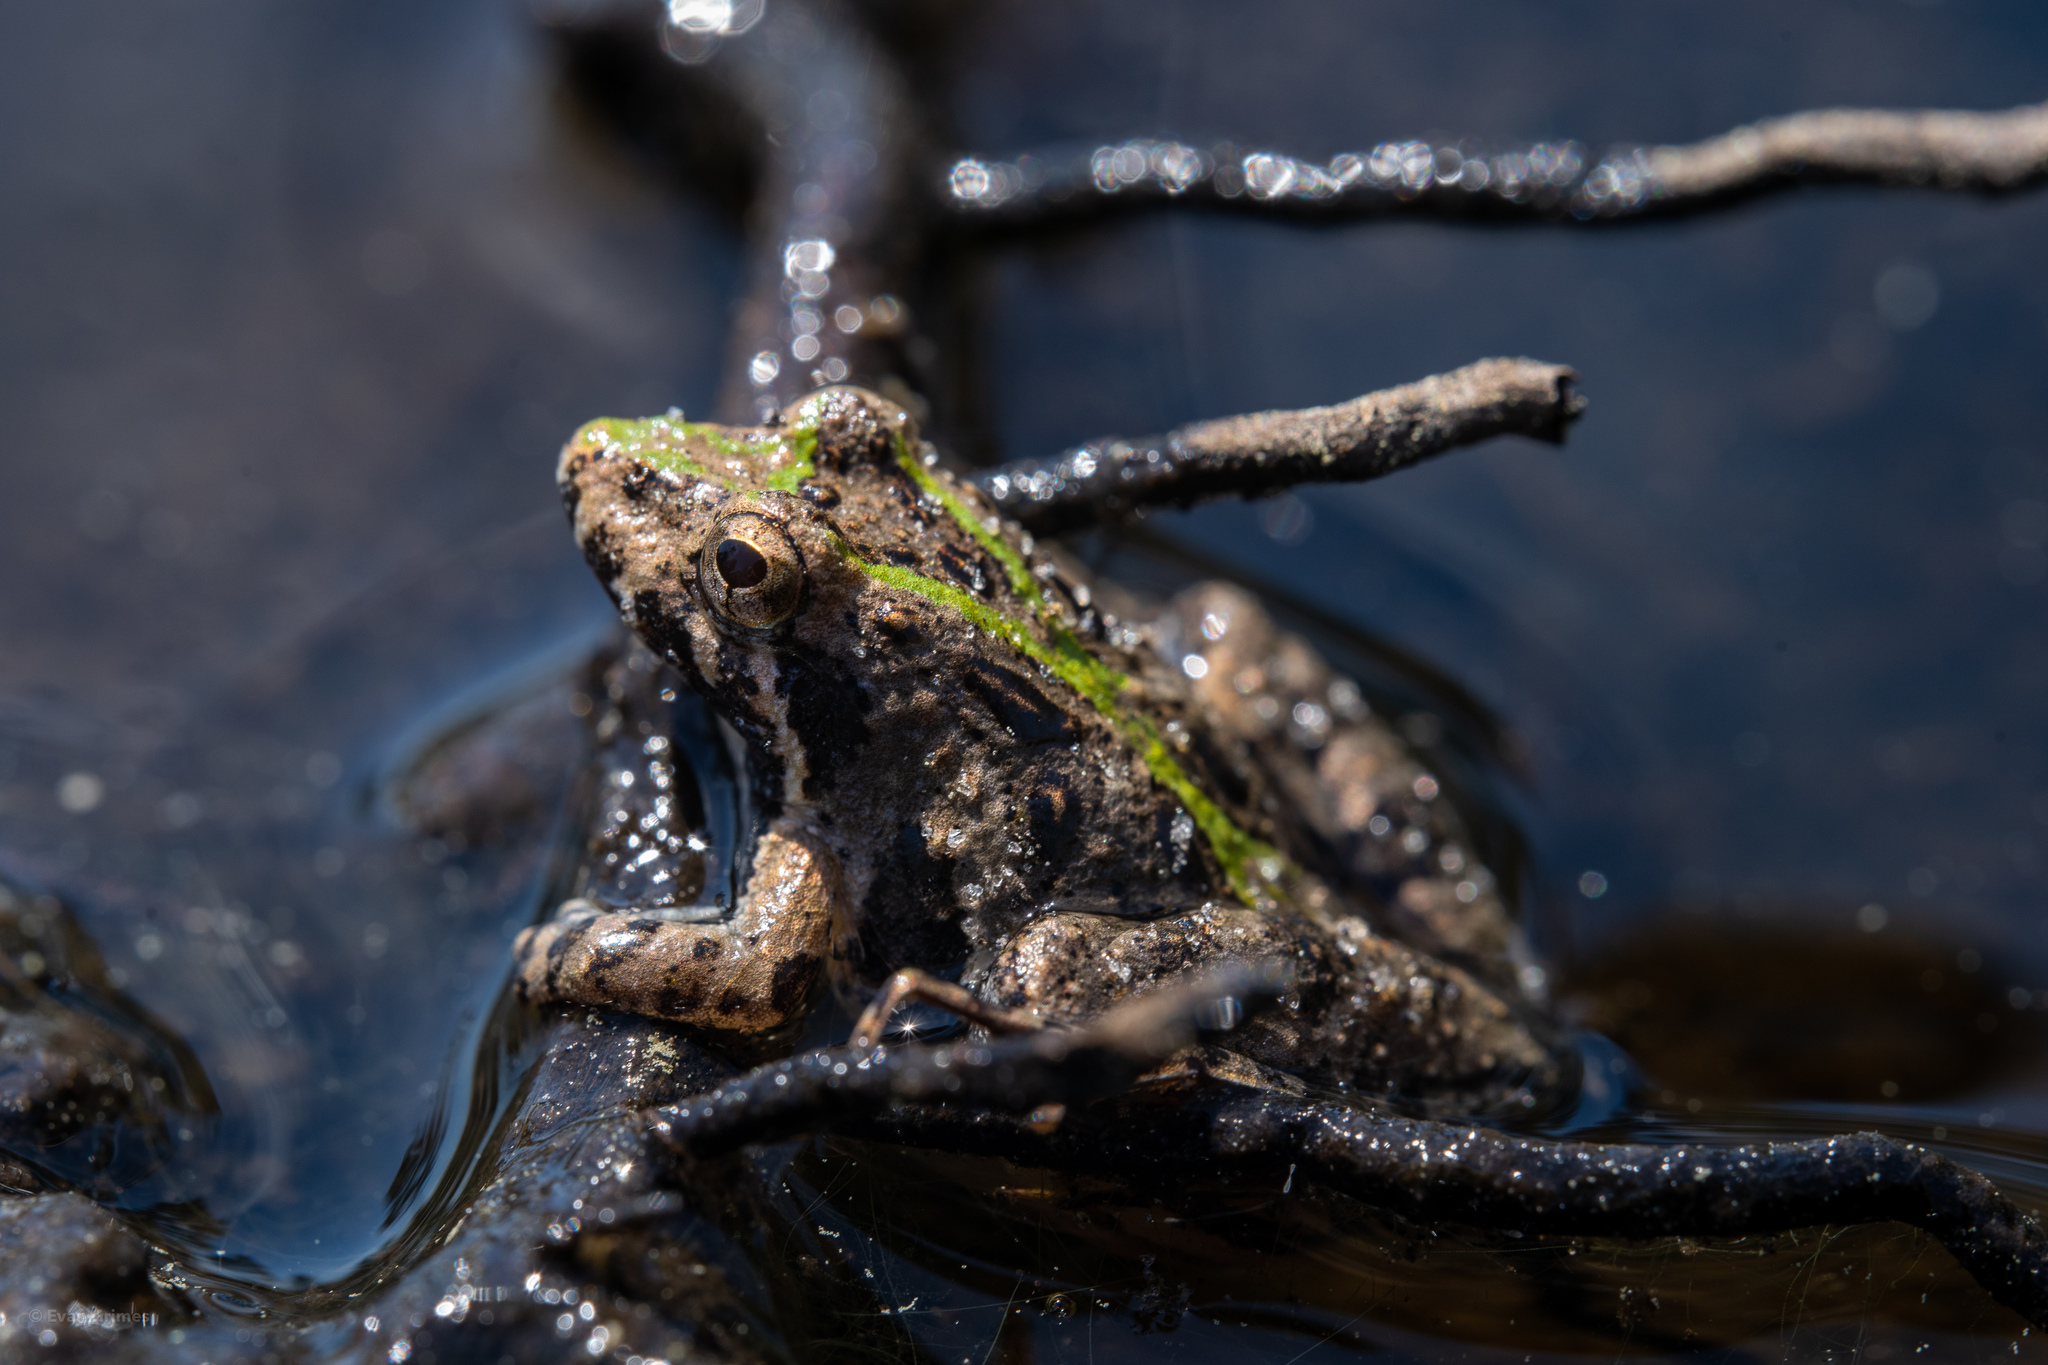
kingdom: Animalia
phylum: Chordata
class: Amphibia
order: Anura
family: Hylidae
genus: Acris
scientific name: Acris gryllus
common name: Southern cricket frog
